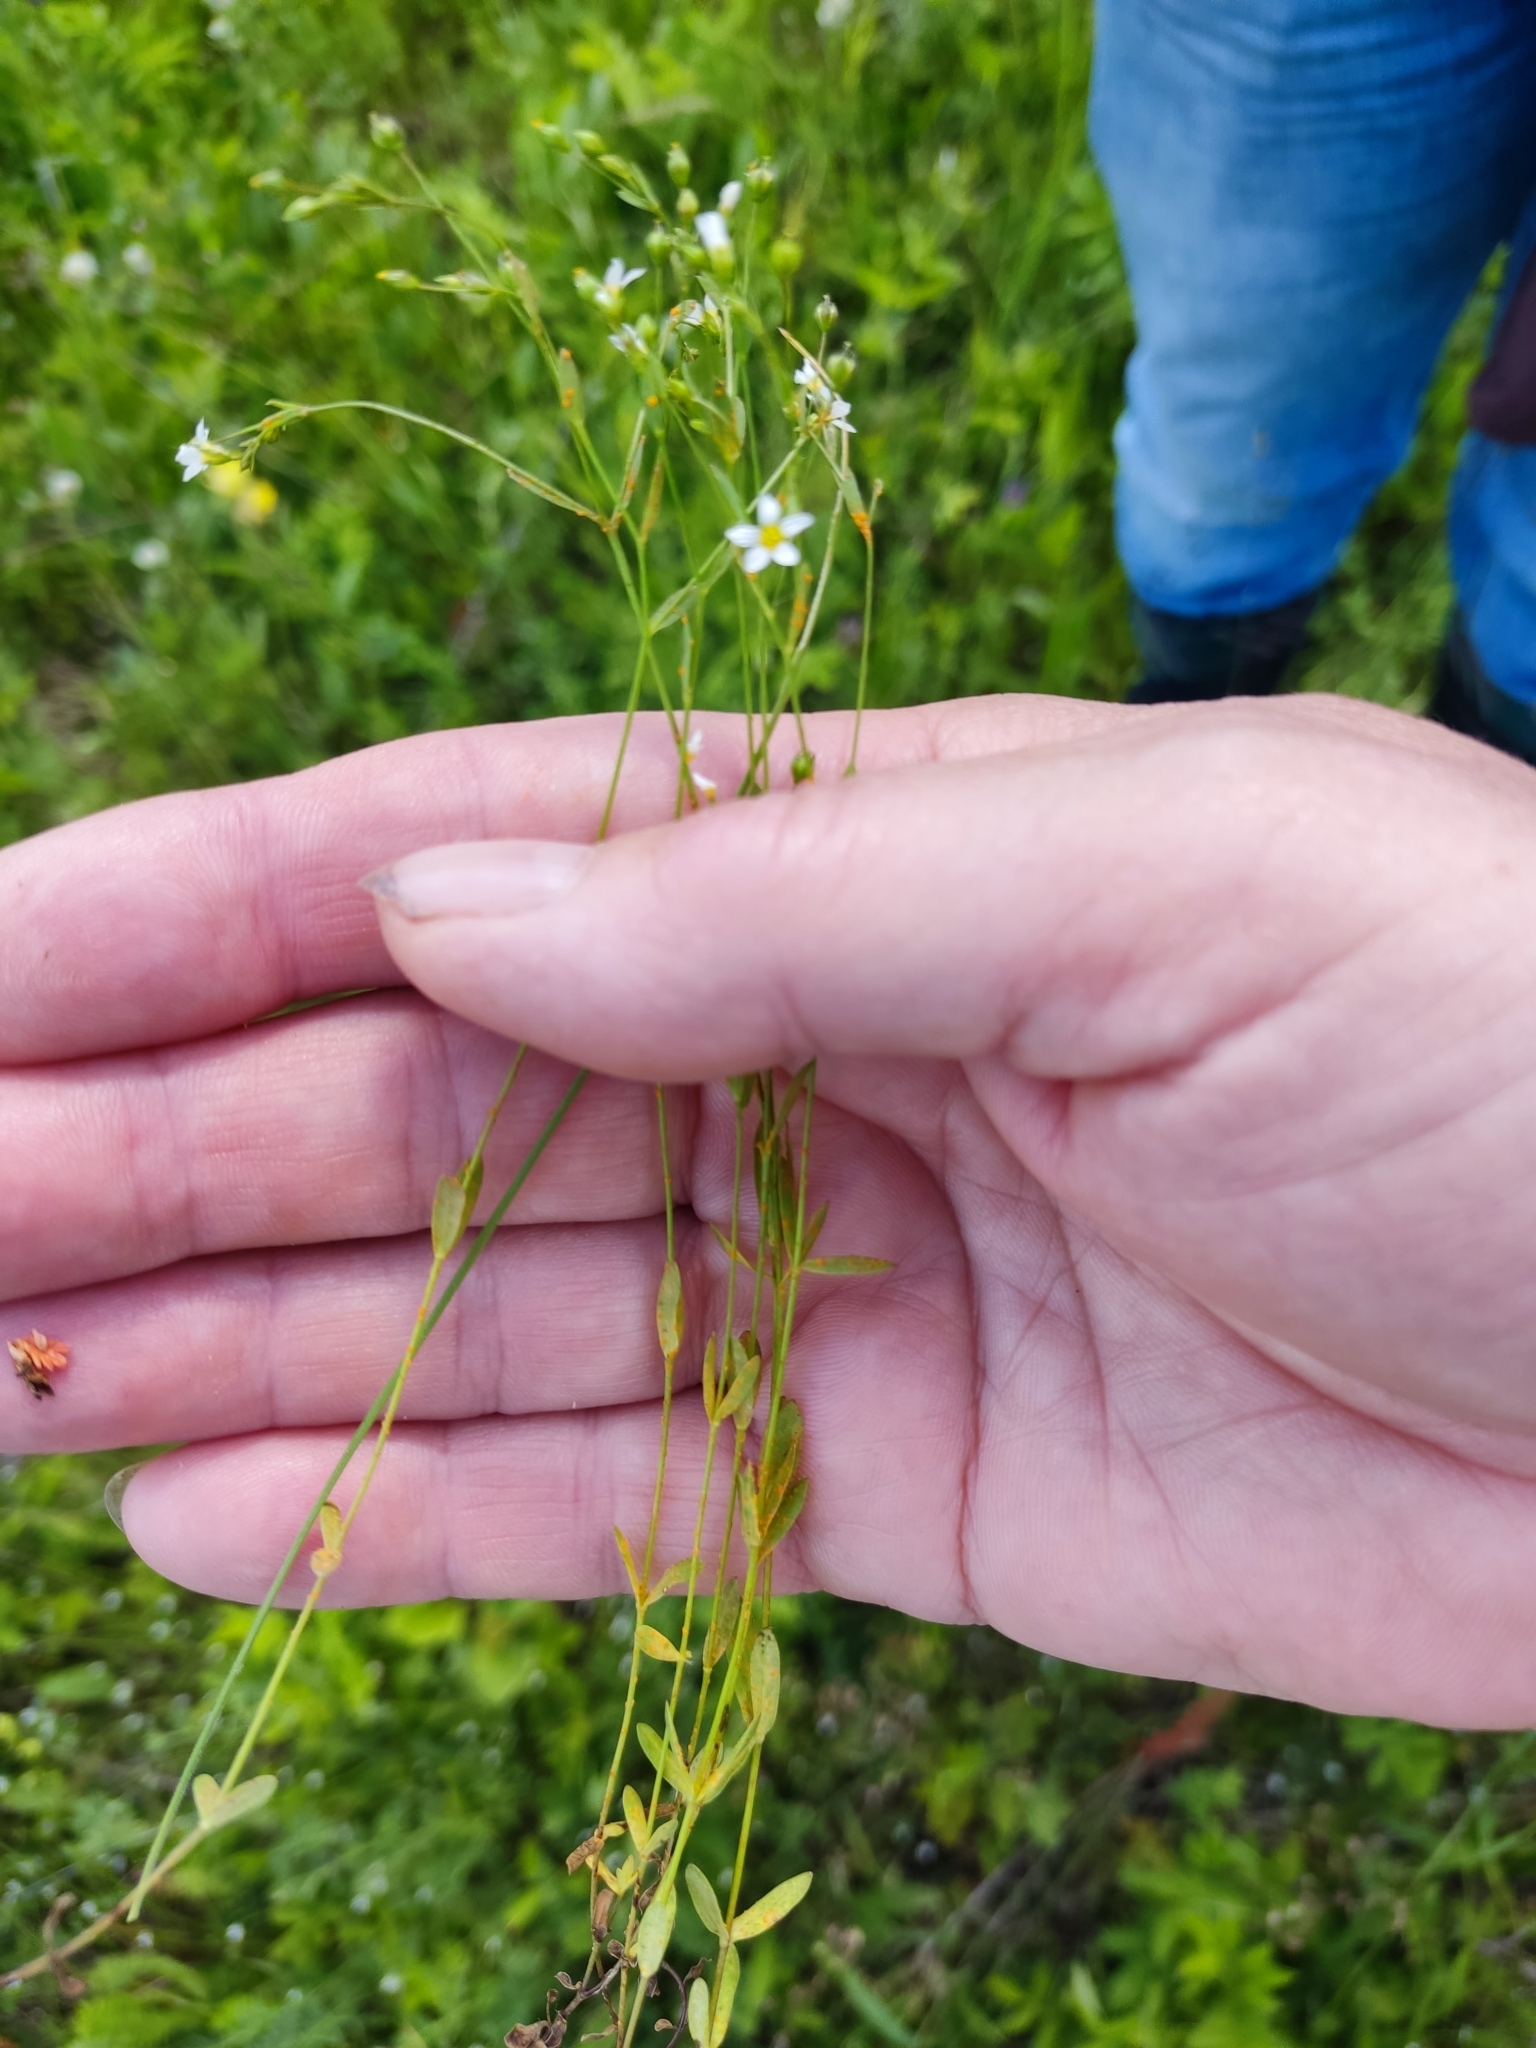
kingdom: Plantae
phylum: Tracheophyta
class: Magnoliopsida
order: Malpighiales
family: Linaceae
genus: Linum
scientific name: Linum catharticum
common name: Fairy flax
